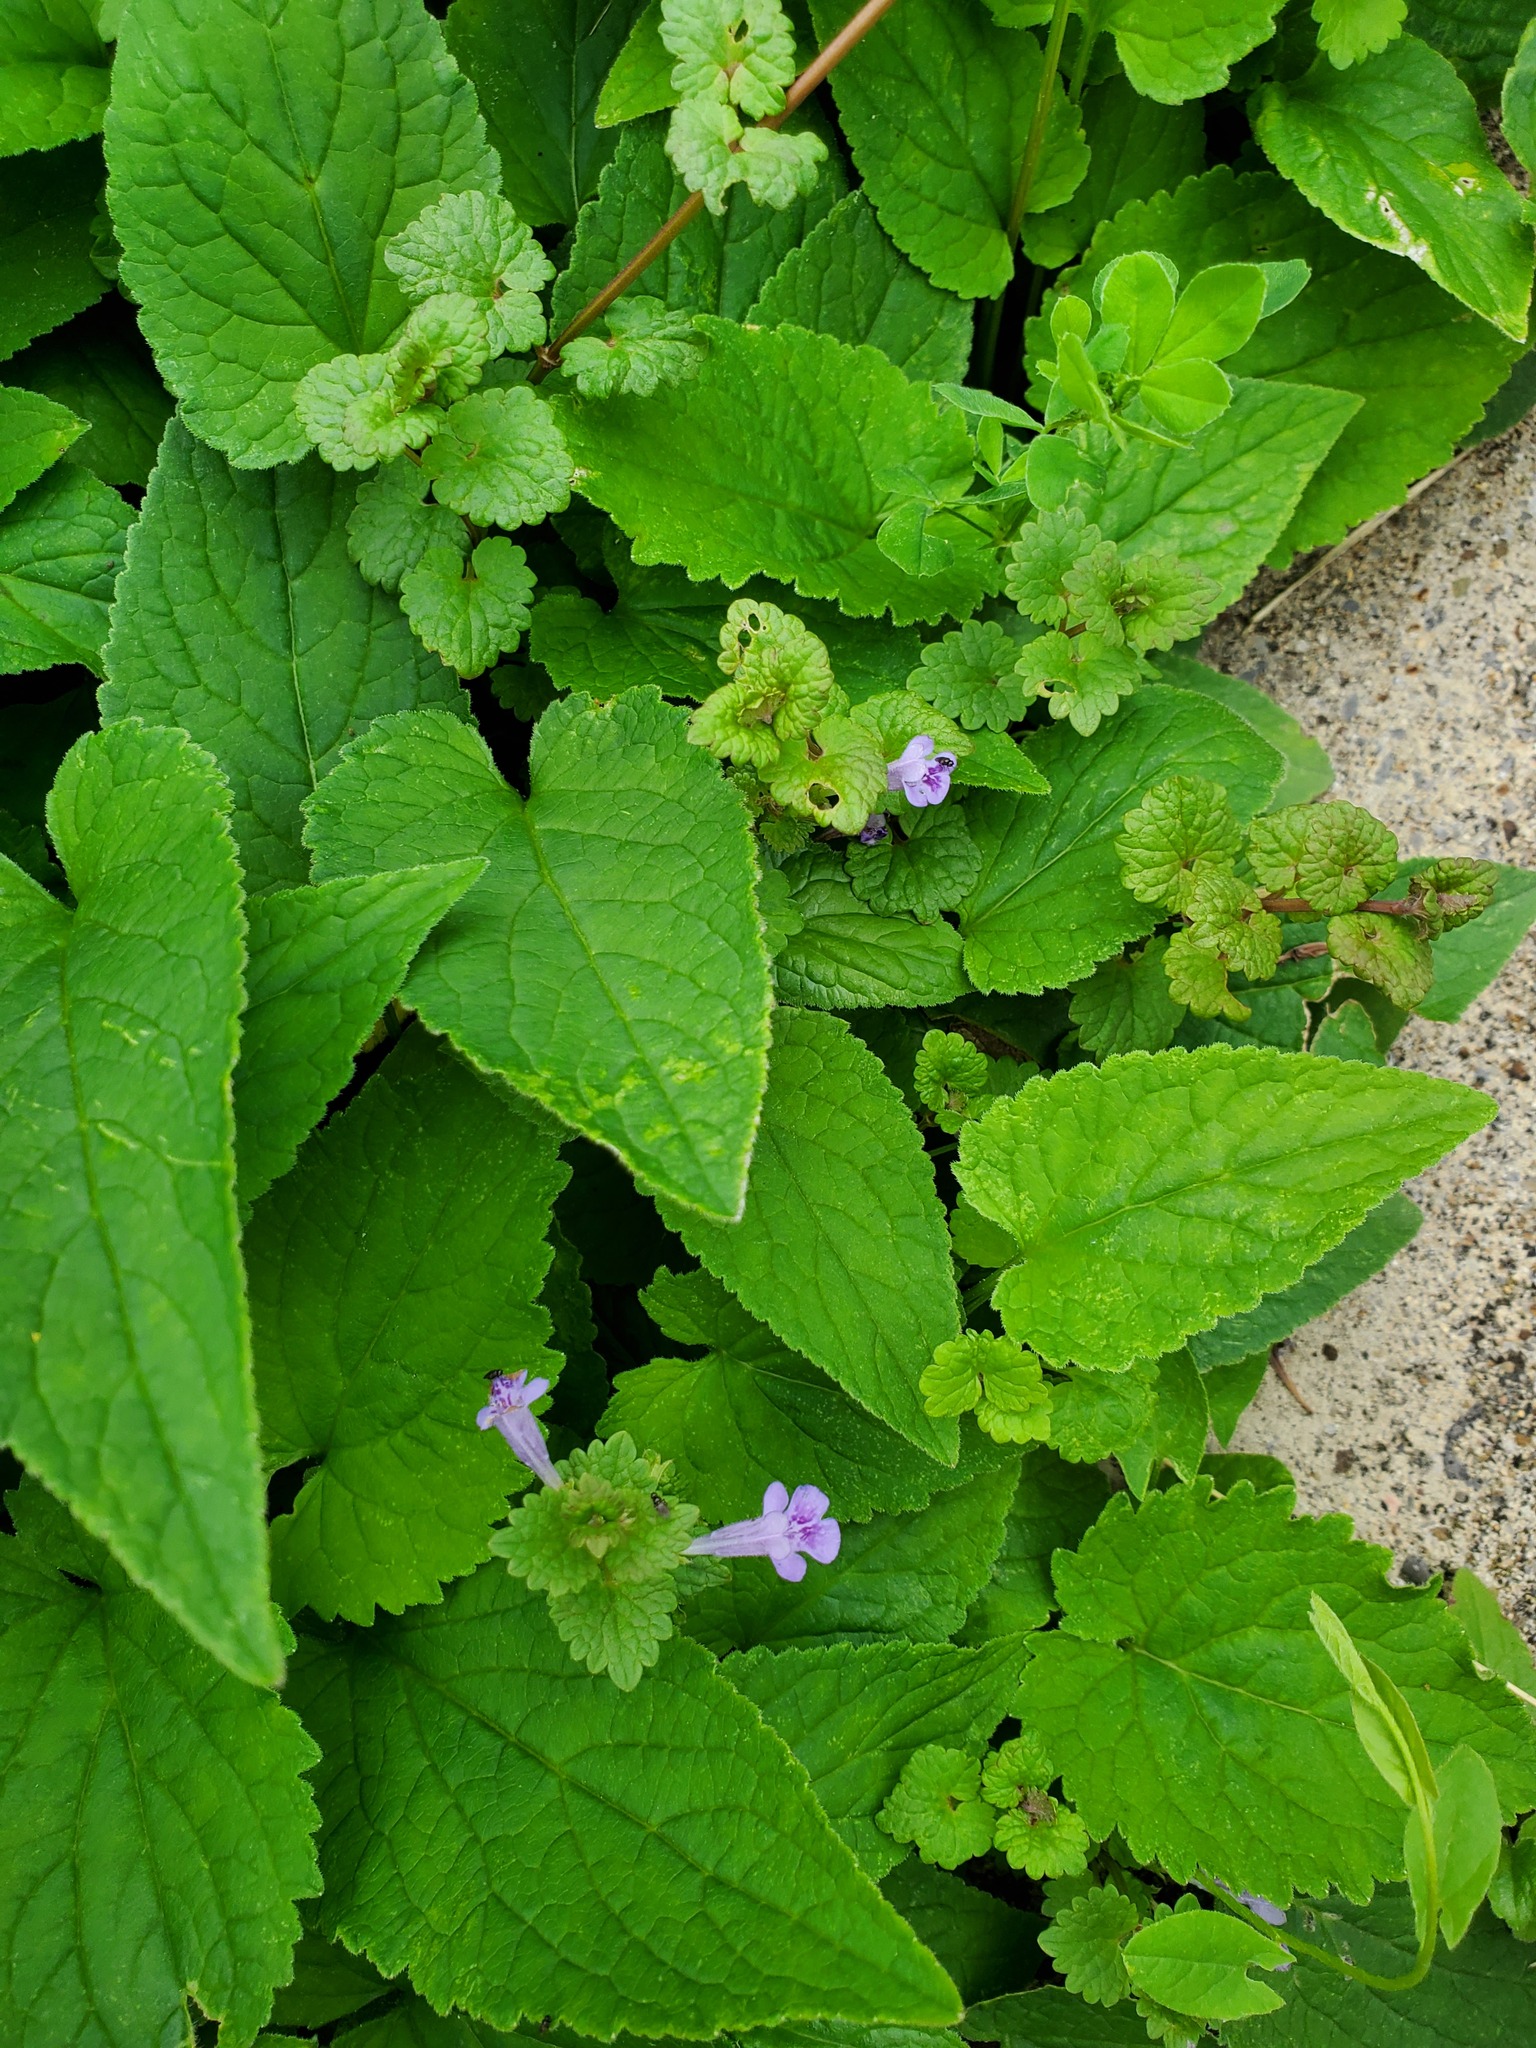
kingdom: Plantae
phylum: Tracheophyta
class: Magnoliopsida
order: Lamiales
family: Lamiaceae
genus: Glechoma
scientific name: Glechoma hederacea
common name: Ground ivy
